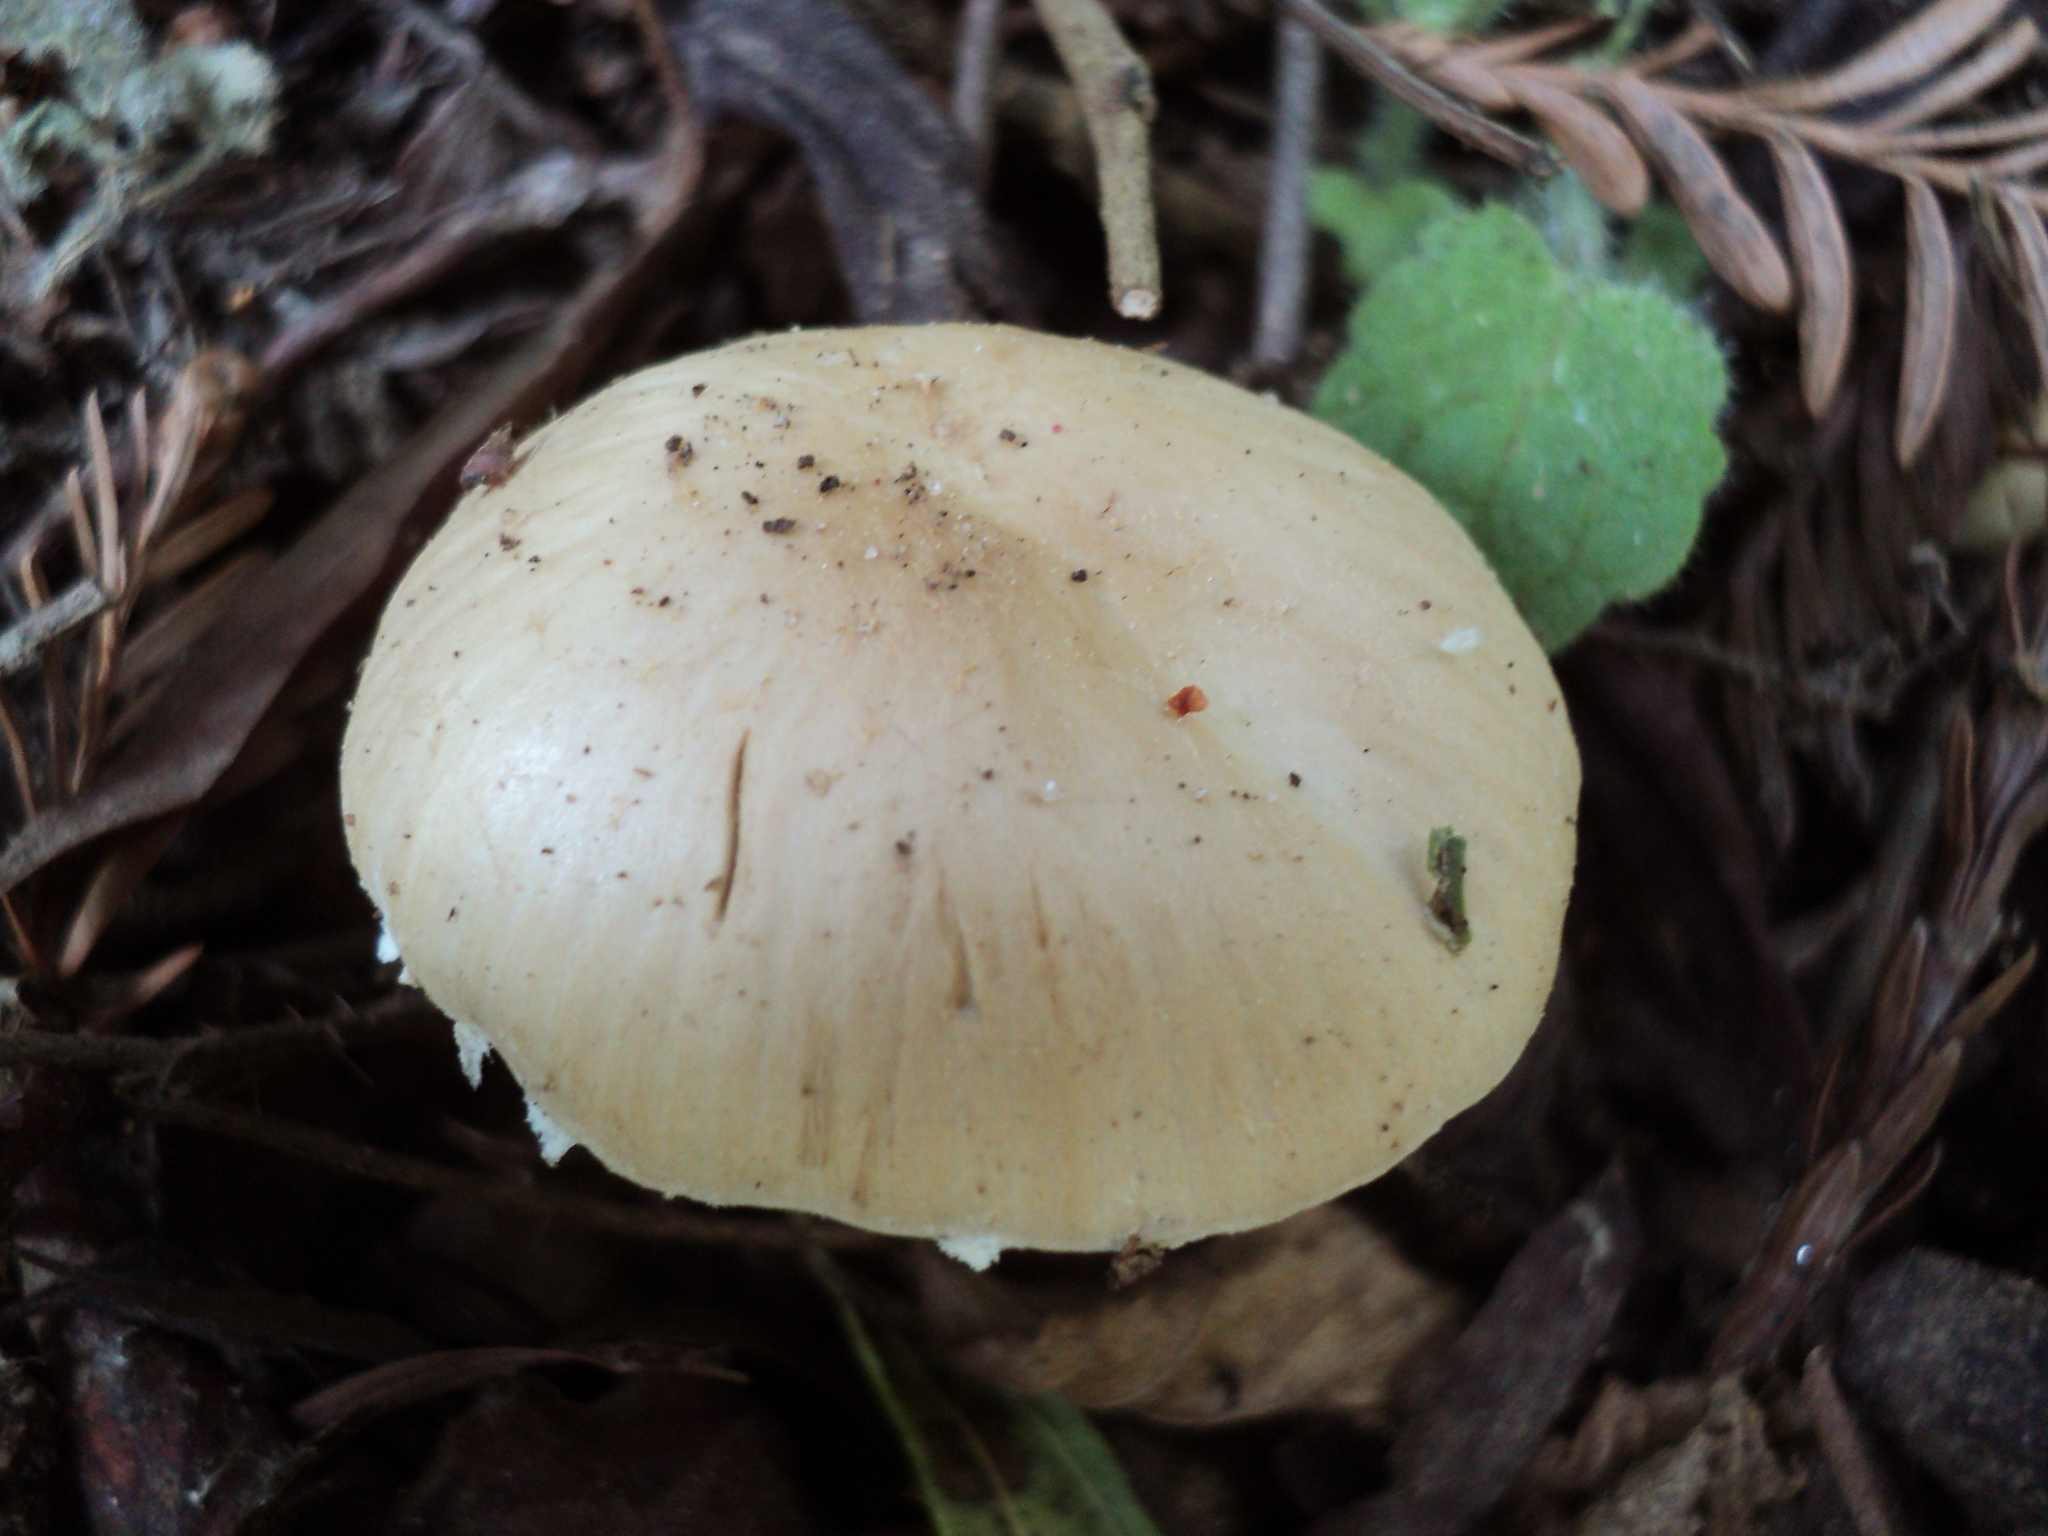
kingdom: Fungi
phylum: Basidiomycota
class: Agaricomycetes
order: Agaricales
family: Psathyrellaceae
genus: Candolleomyces
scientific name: Candolleomyces candolleanus
